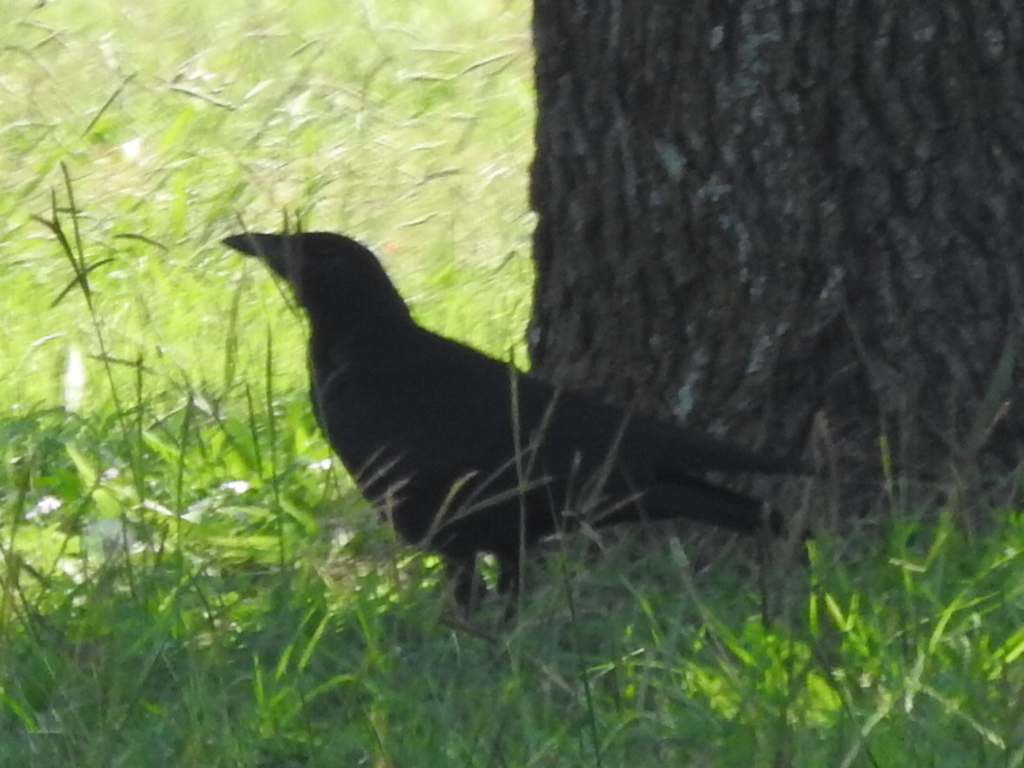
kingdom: Animalia
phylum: Chordata
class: Aves
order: Passeriformes
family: Corvidae
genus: Corvus
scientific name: Corvus brachyrhynchos
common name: American crow
